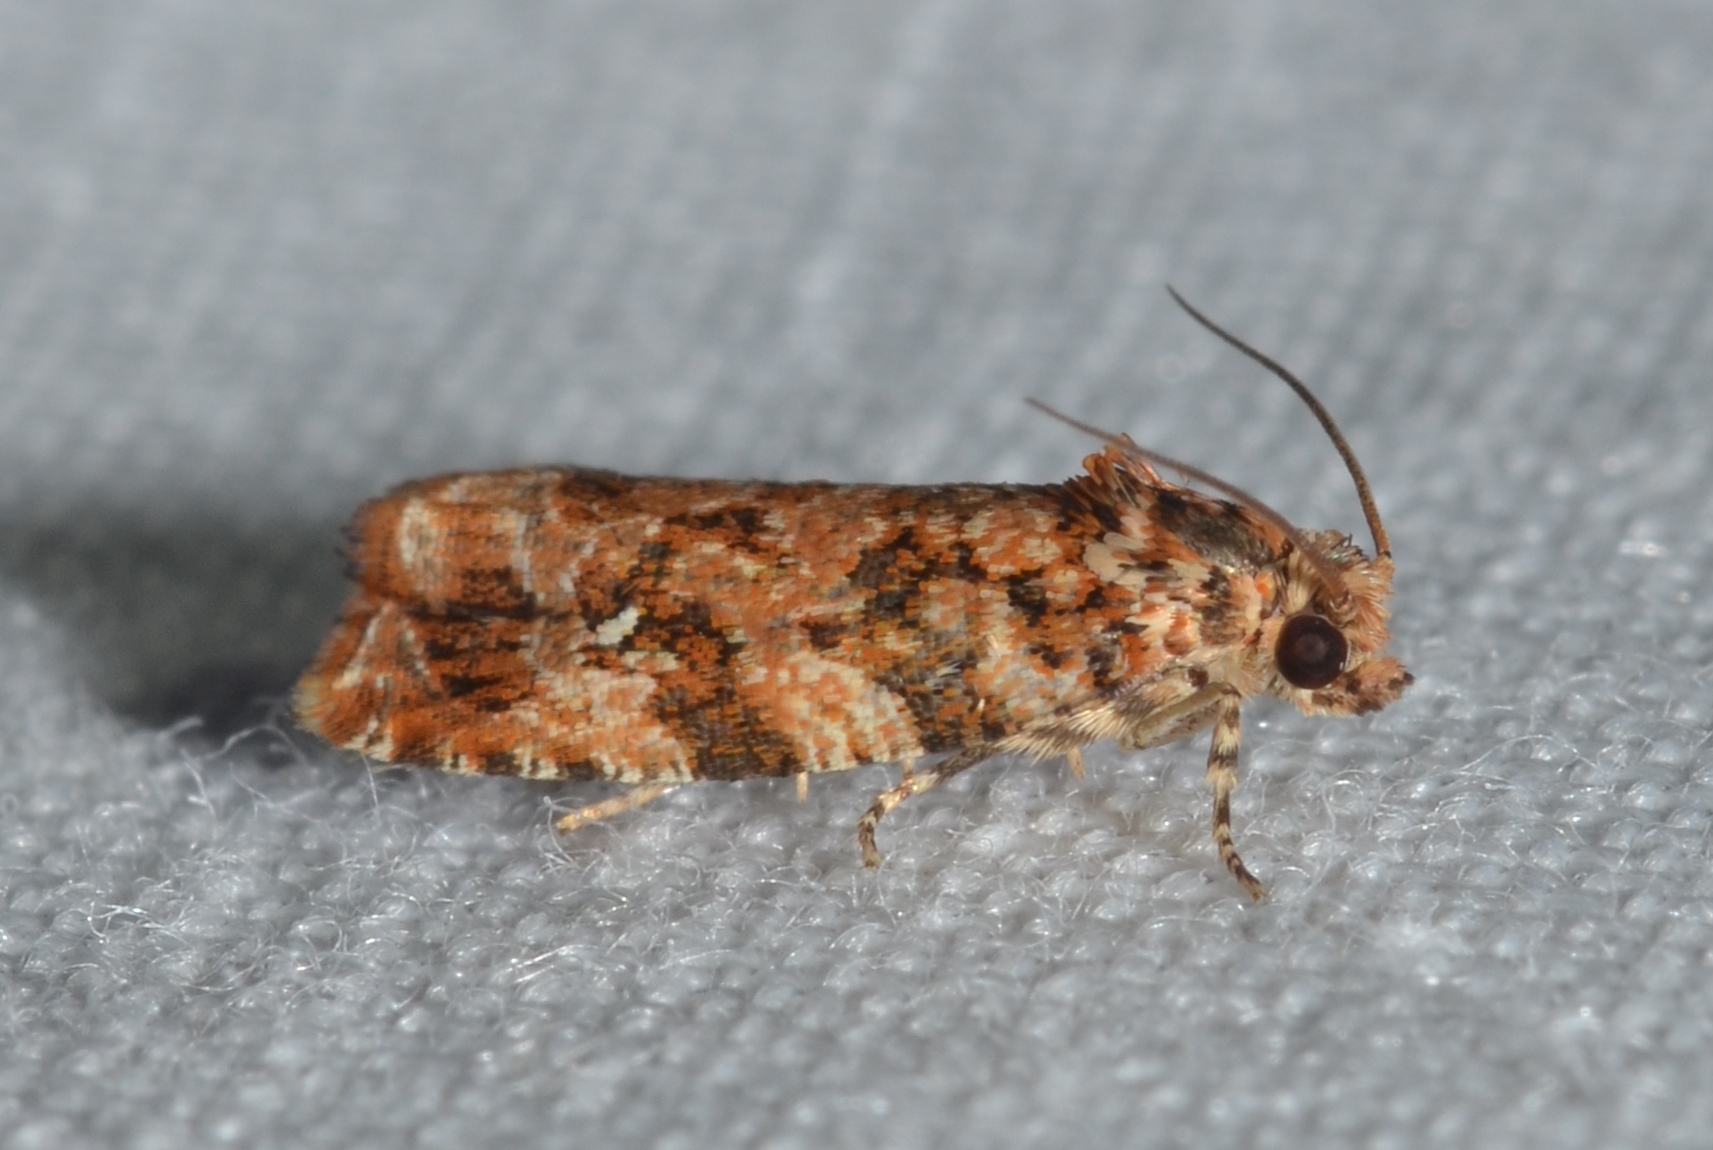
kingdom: Animalia
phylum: Arthropoda
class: Insecta
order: Lepidoptera
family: Tortricidae
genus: Phaecasiophora
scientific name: Phaecasiophora niveiguttana
